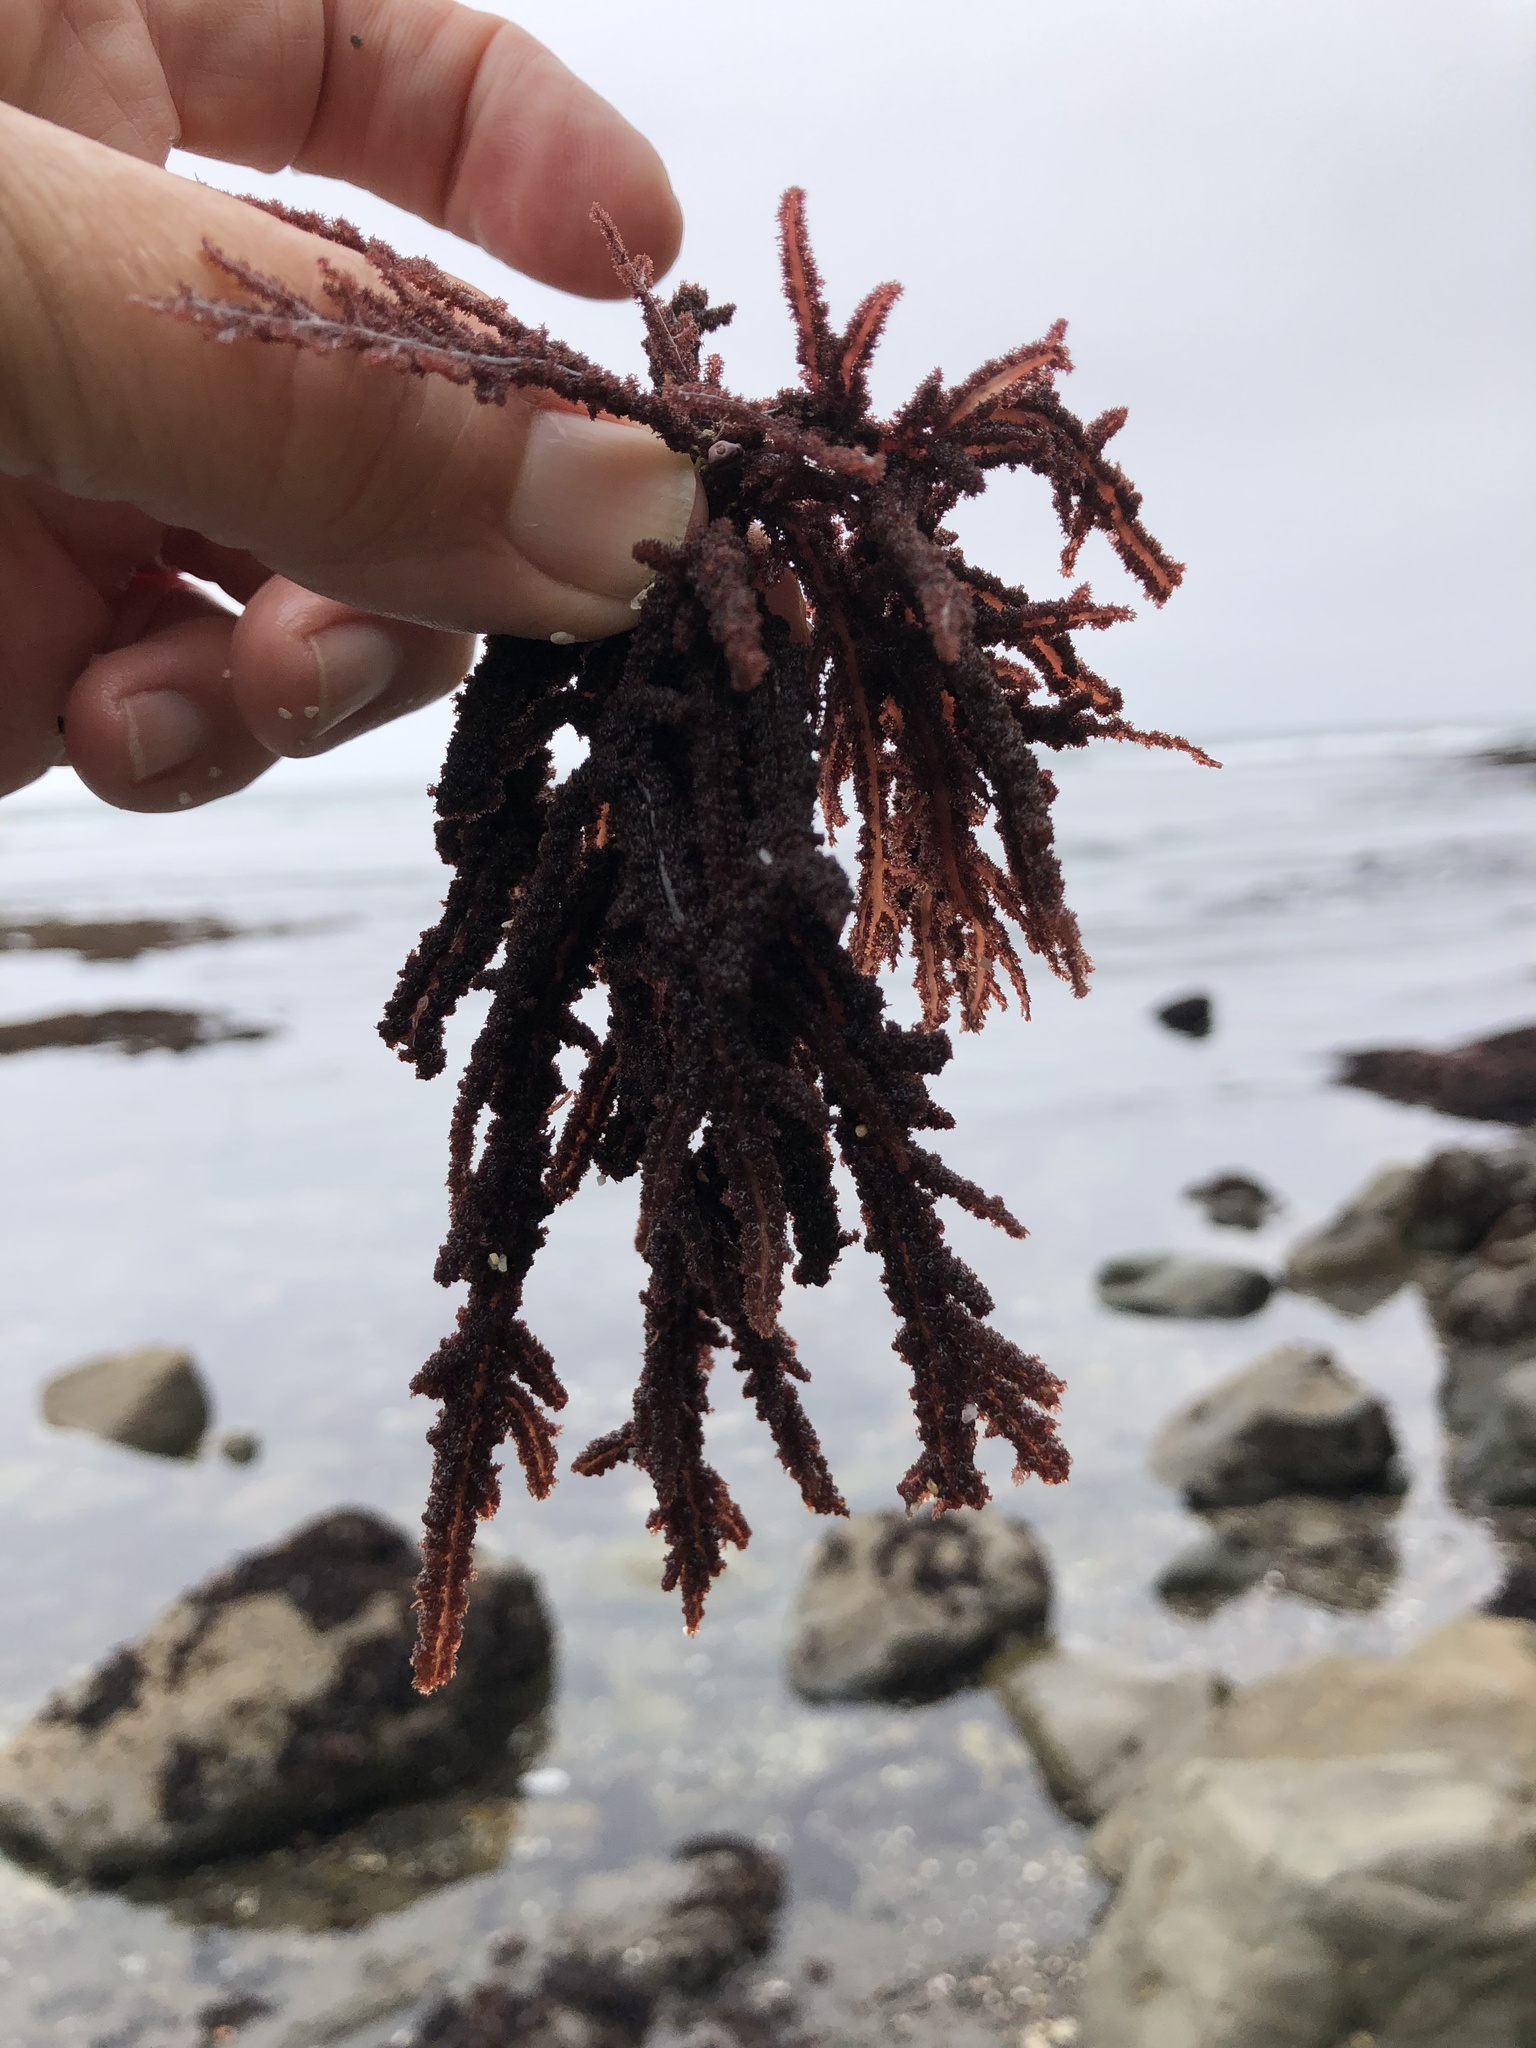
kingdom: Plantae
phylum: Rhodophyta
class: Florideophyceae
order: Ceramiales
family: Wrangeliaceae
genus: Neoptilota
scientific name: Neoptilota densa
